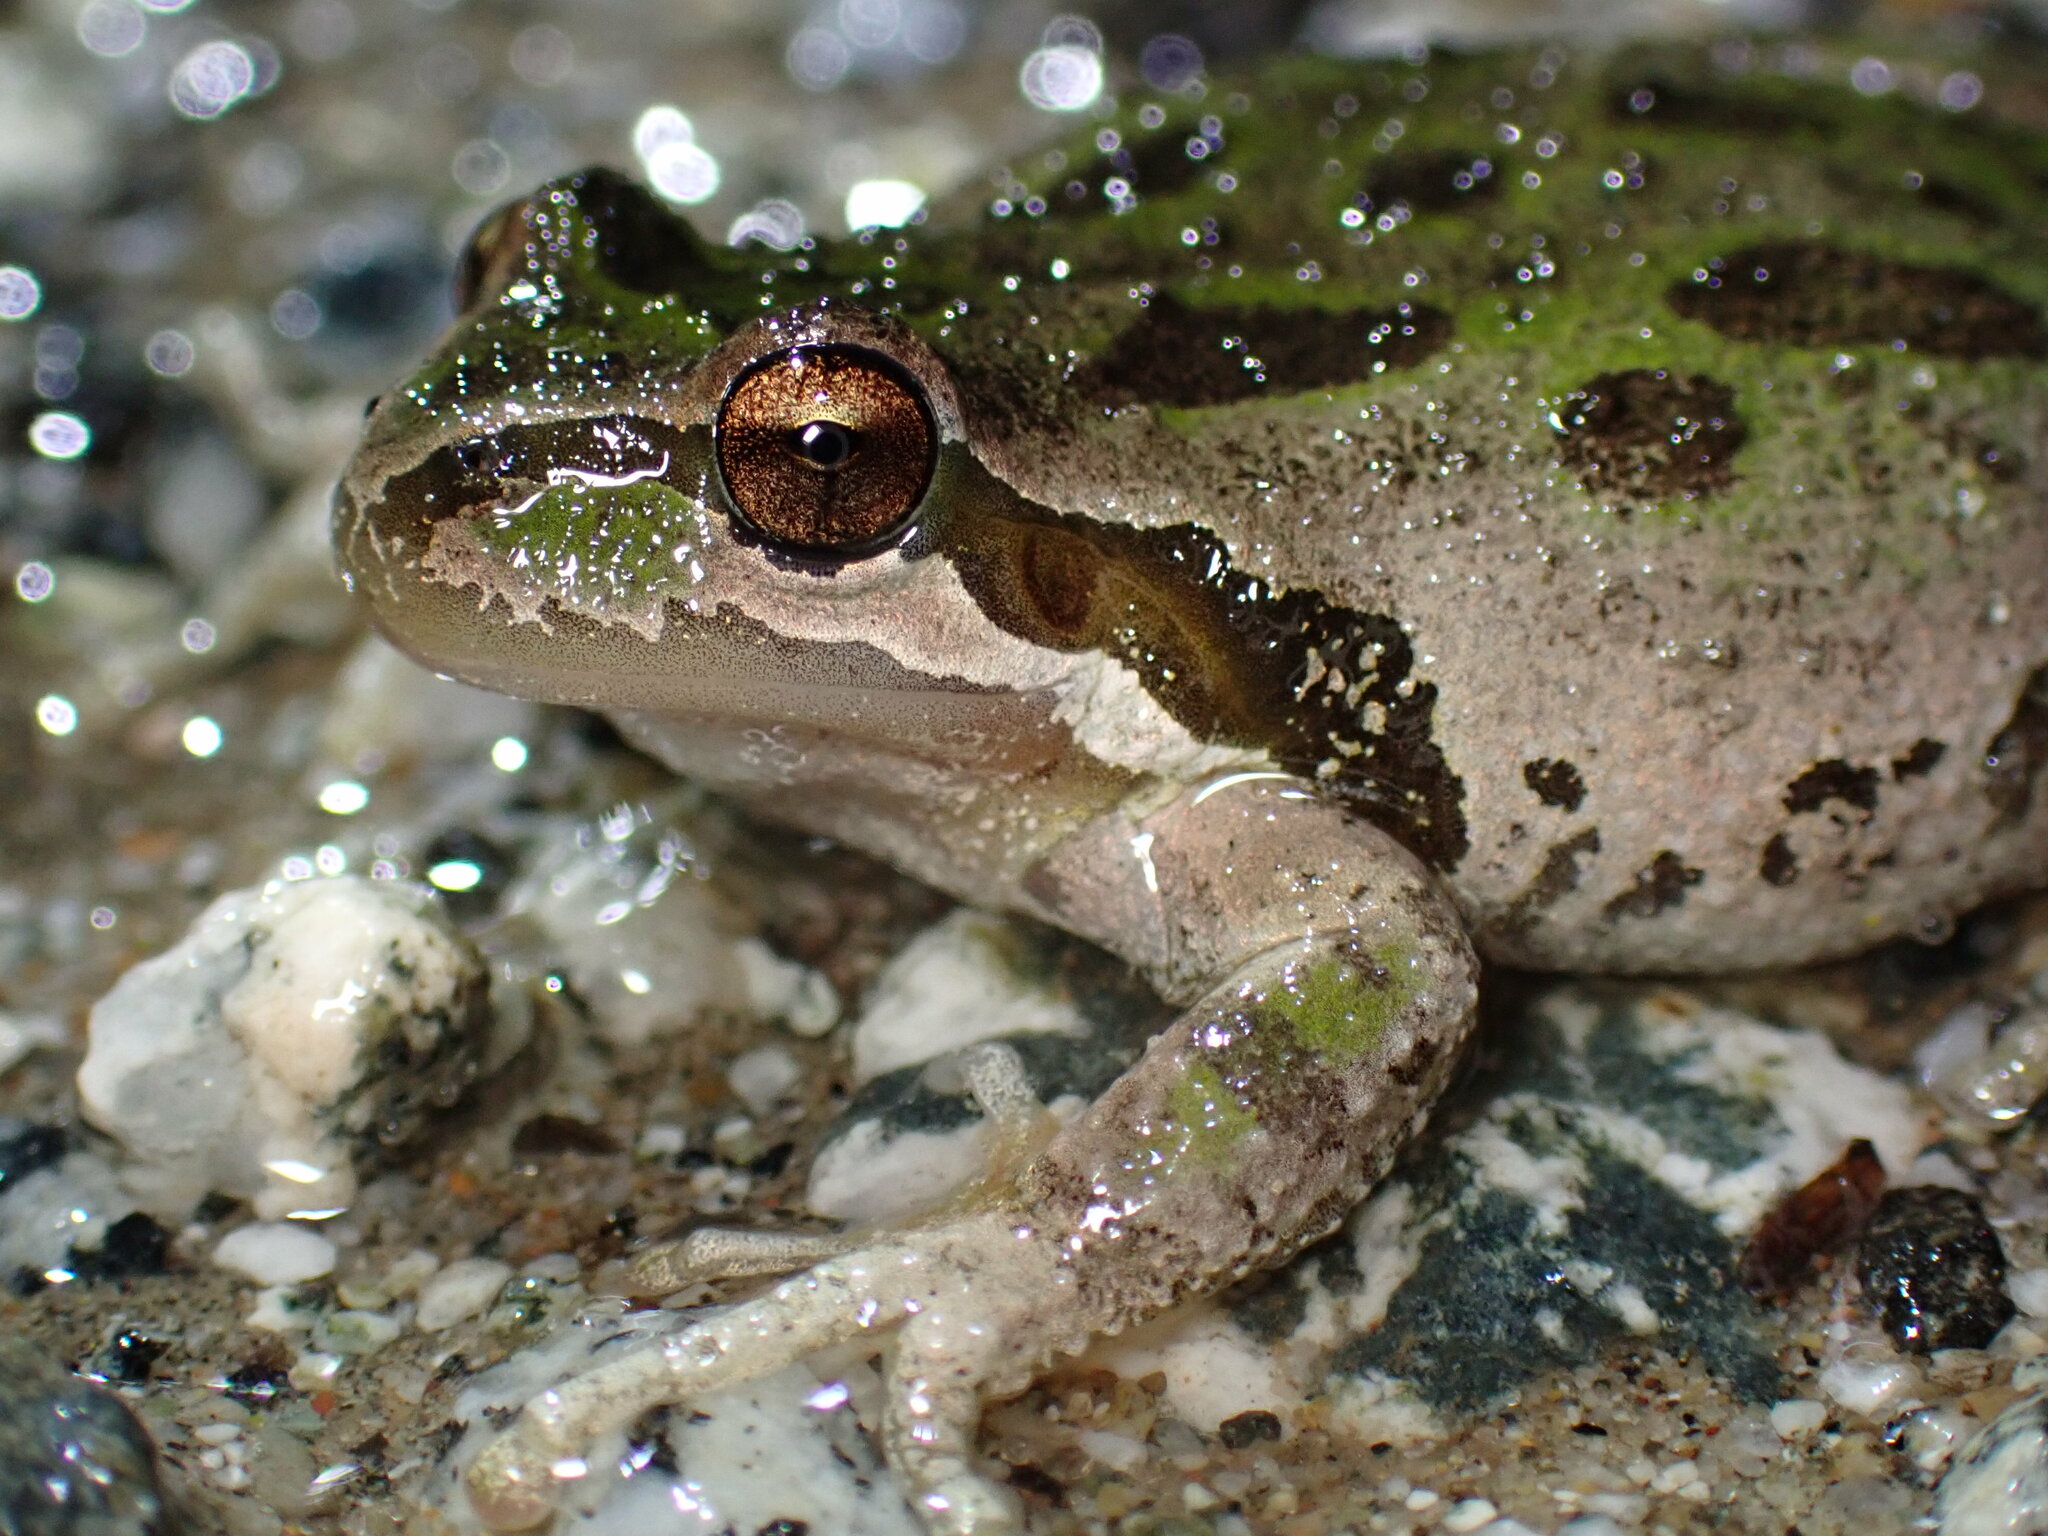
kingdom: Animalia
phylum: Chordata
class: Amphibia
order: Anura
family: Hylidae
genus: Pseudacris
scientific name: Pseudacris regilla
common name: Pacific chorus frog
